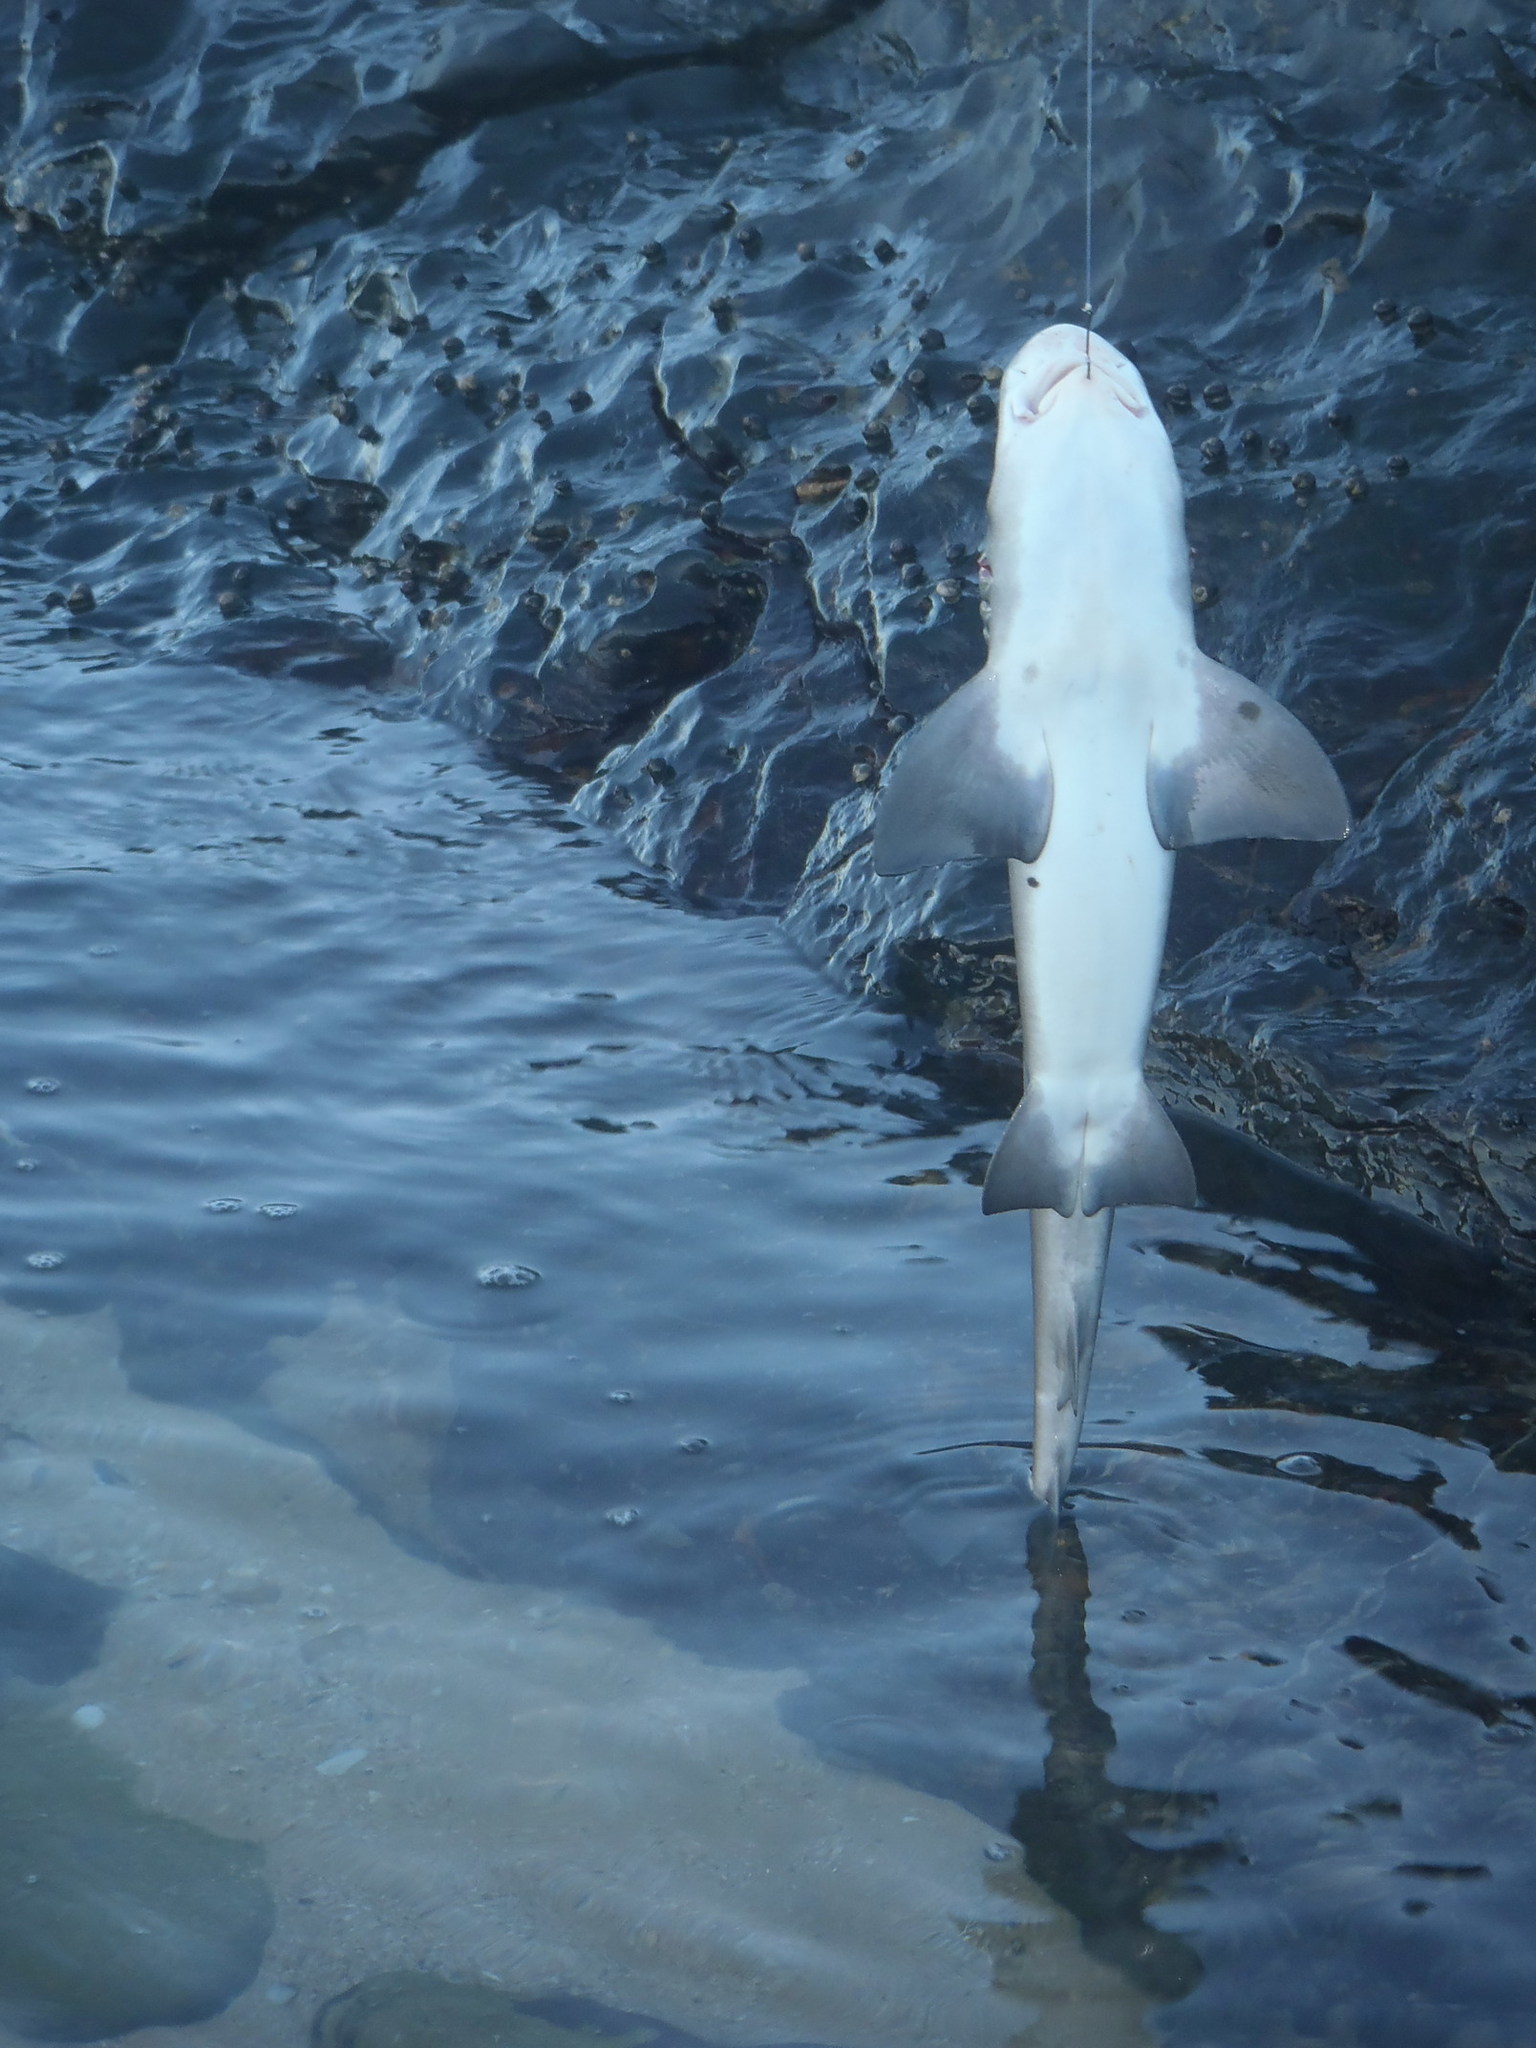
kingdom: Animalia
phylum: Chordata
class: Elasmobranchii
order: Carcharhiniformes
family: Triakidae
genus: Triakis
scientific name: Triakis megalopterus
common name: Spotted gully shark
